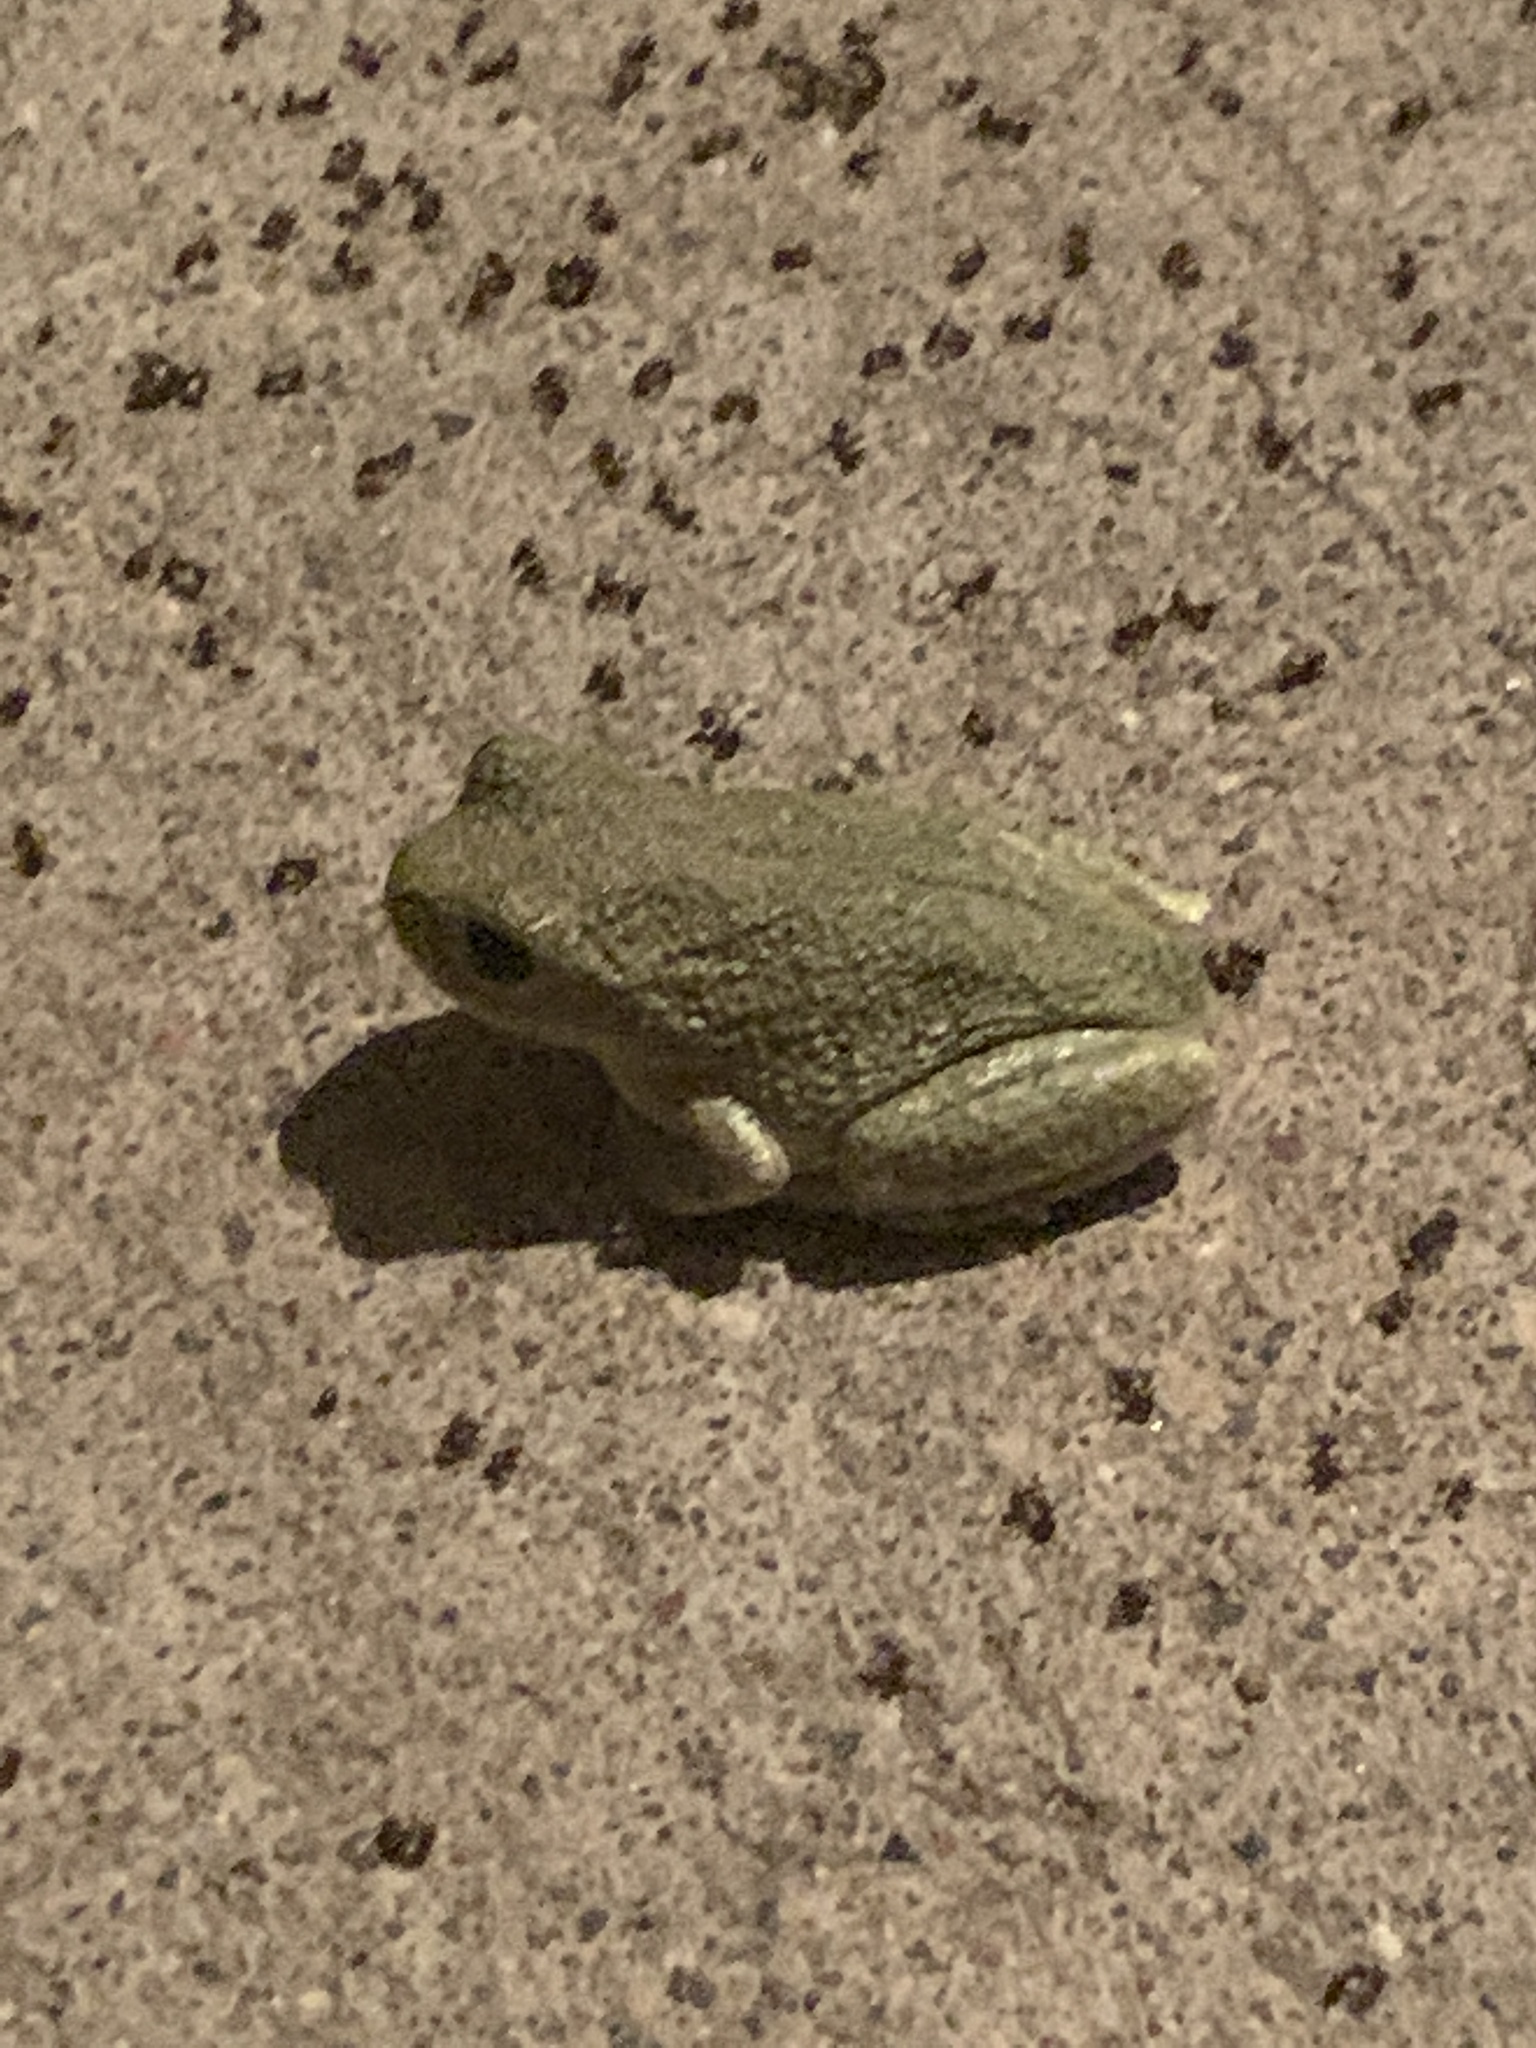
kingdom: Animalia
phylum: Chordata
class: Amphibia
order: Anura
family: Hylidae
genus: Hyla
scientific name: Hyla
